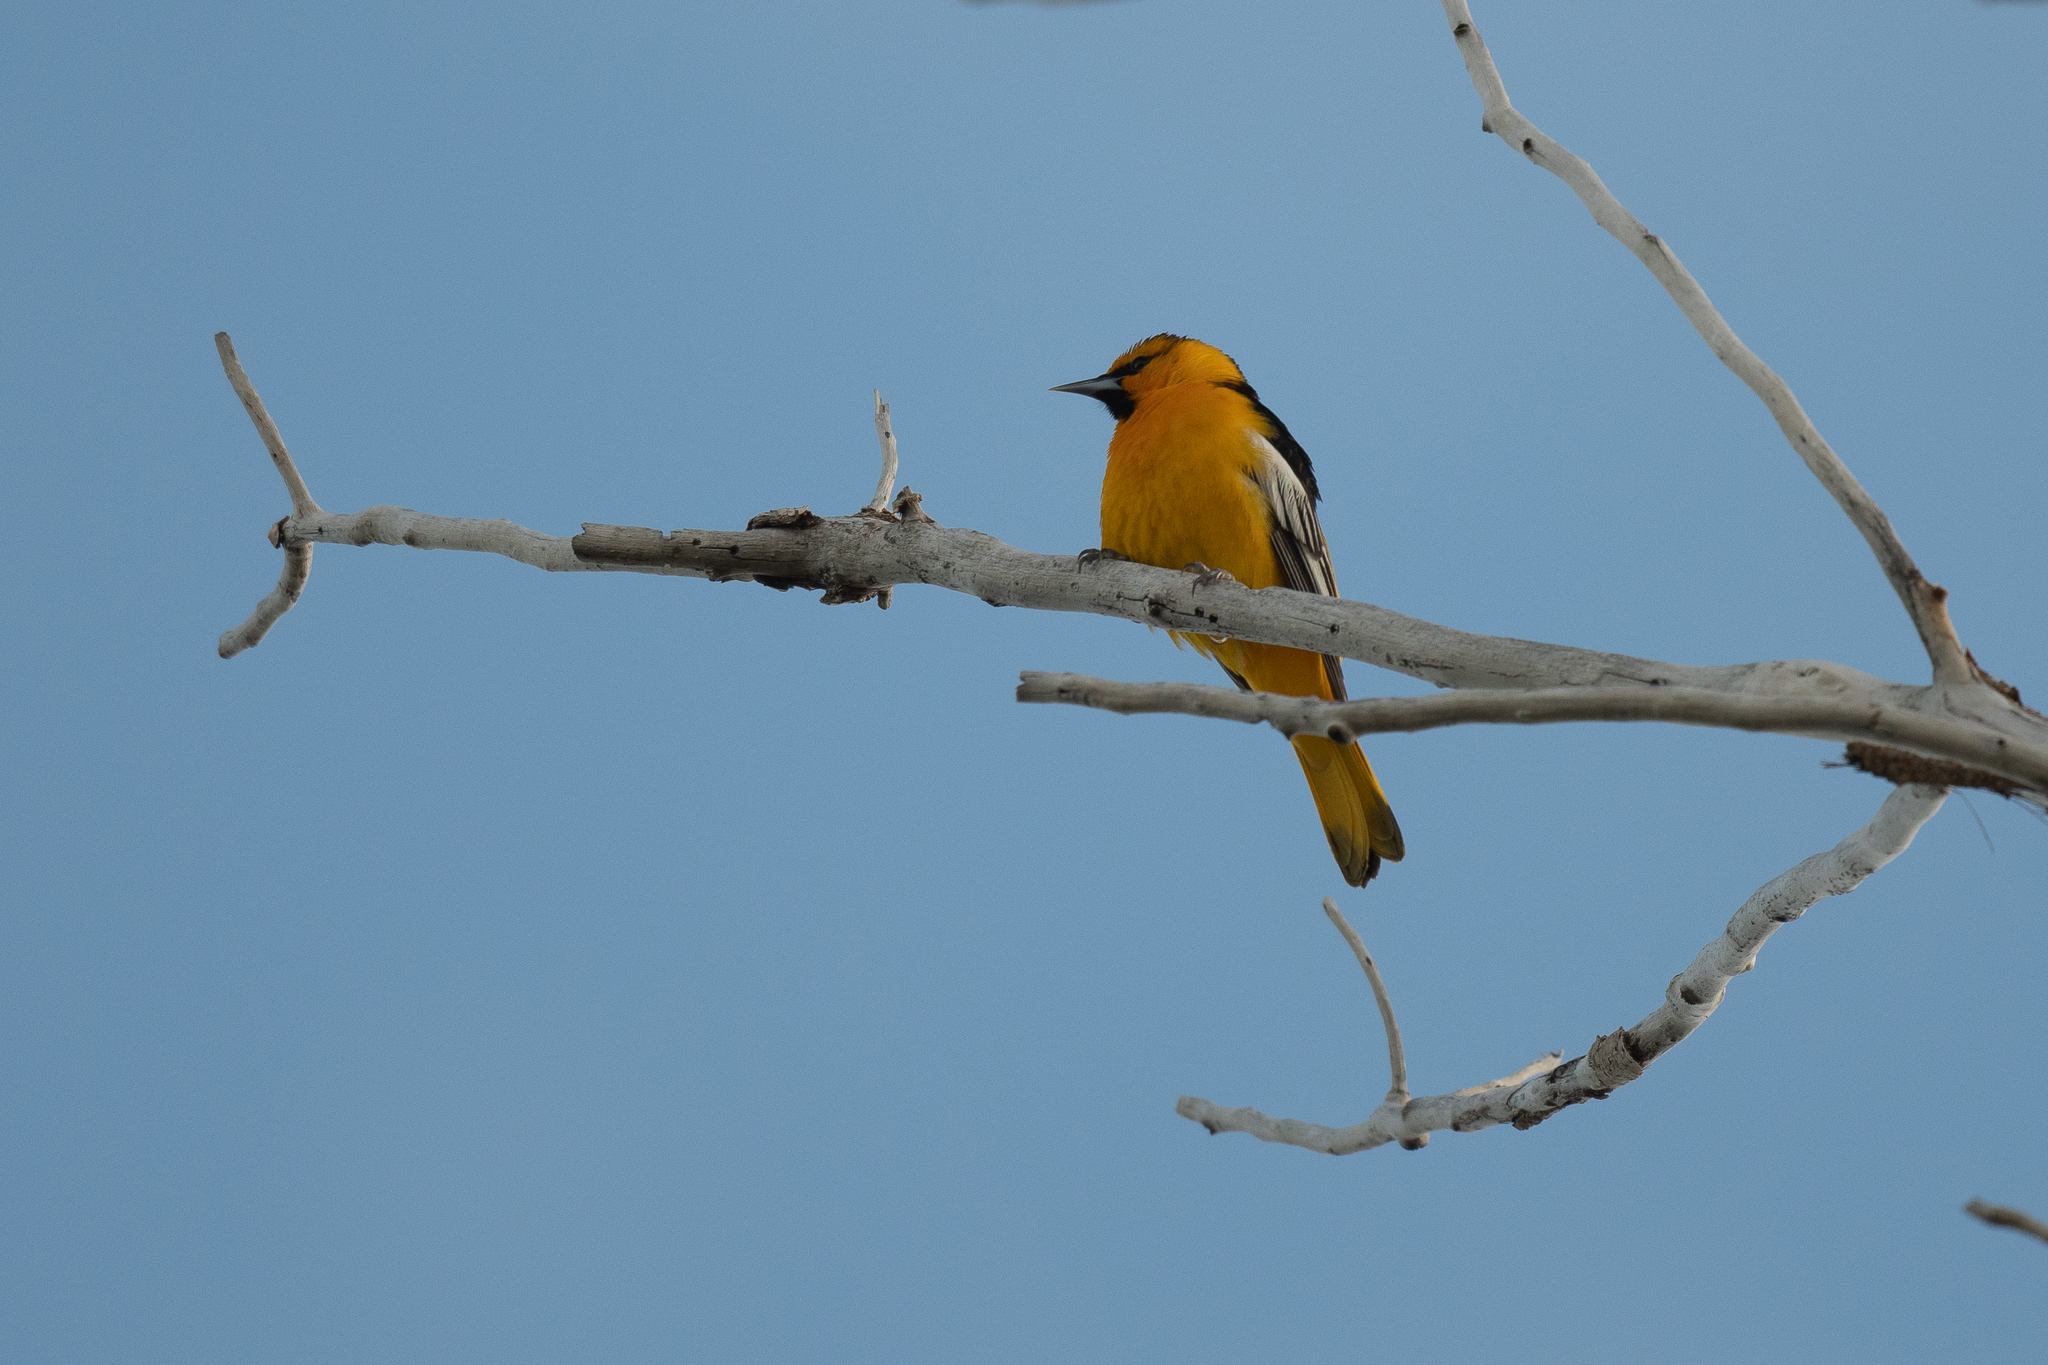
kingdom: Animalia
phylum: Chordata
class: Aves
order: Passeriformes
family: Icteridae
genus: Icterus
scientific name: Icterus bullockii
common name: Bullock's oriole
